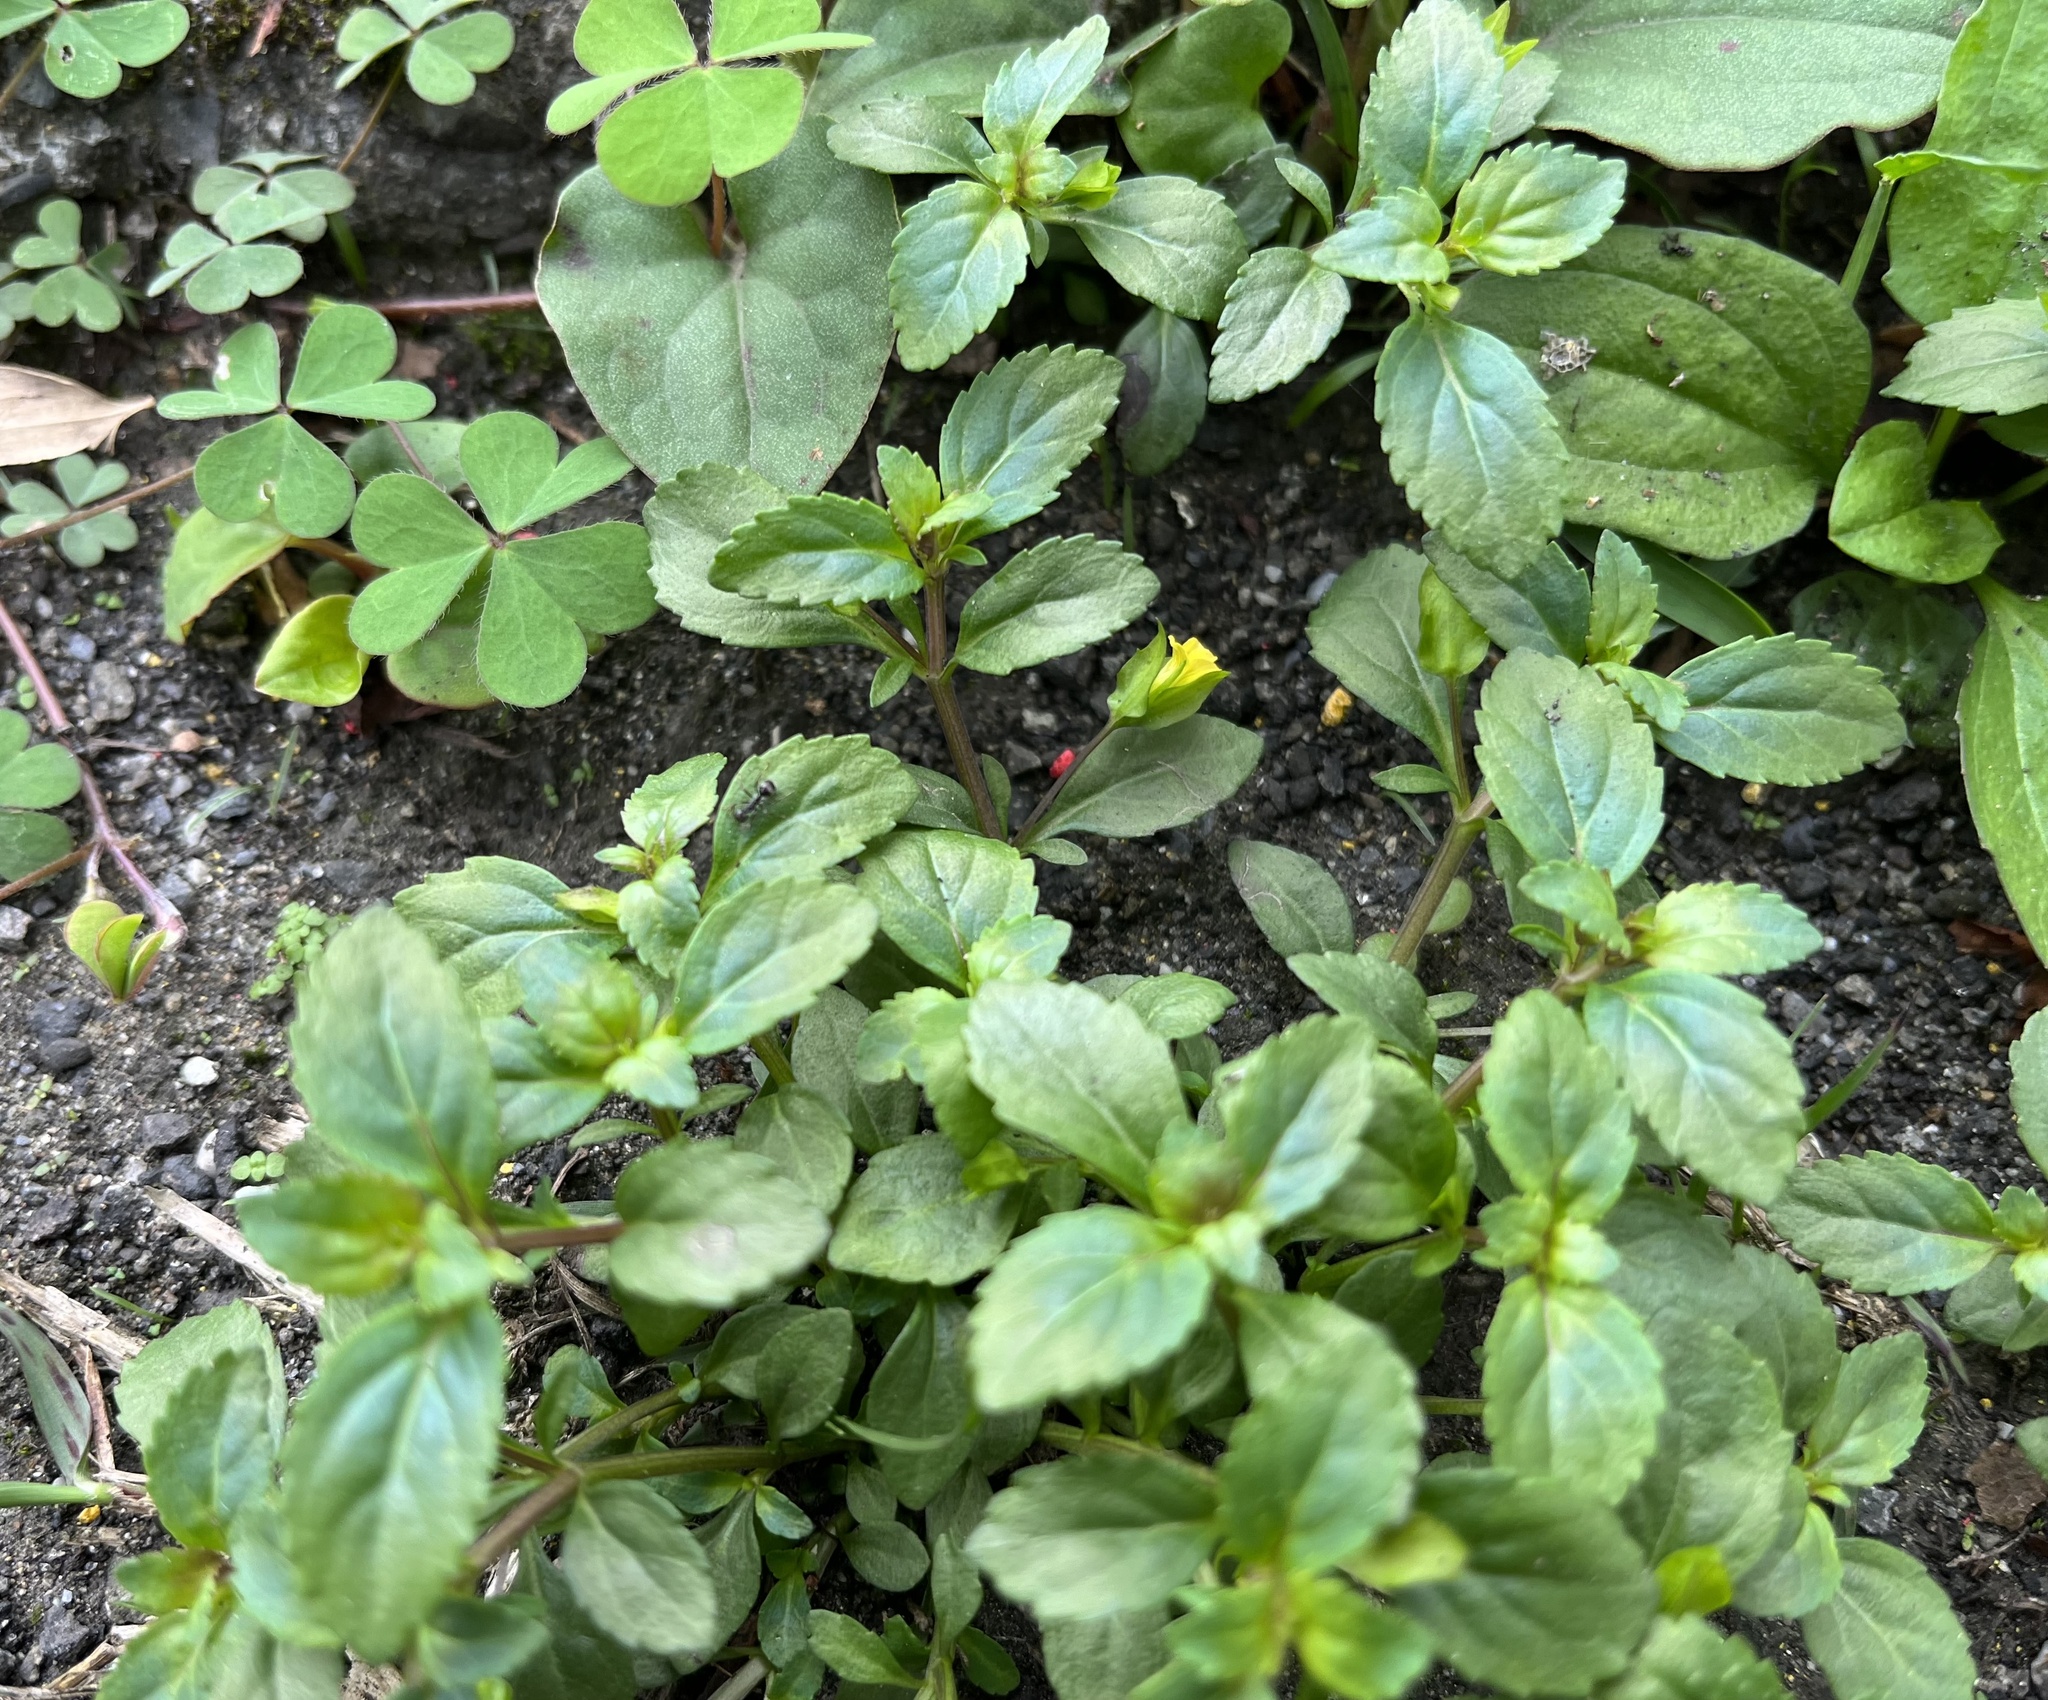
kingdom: Plantae
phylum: Tracheophyta
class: Magnoliopsida
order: Lamiales
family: Plantaginaceae
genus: Mecardonia
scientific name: Mecardonia procumbens
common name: Baby jump-up
